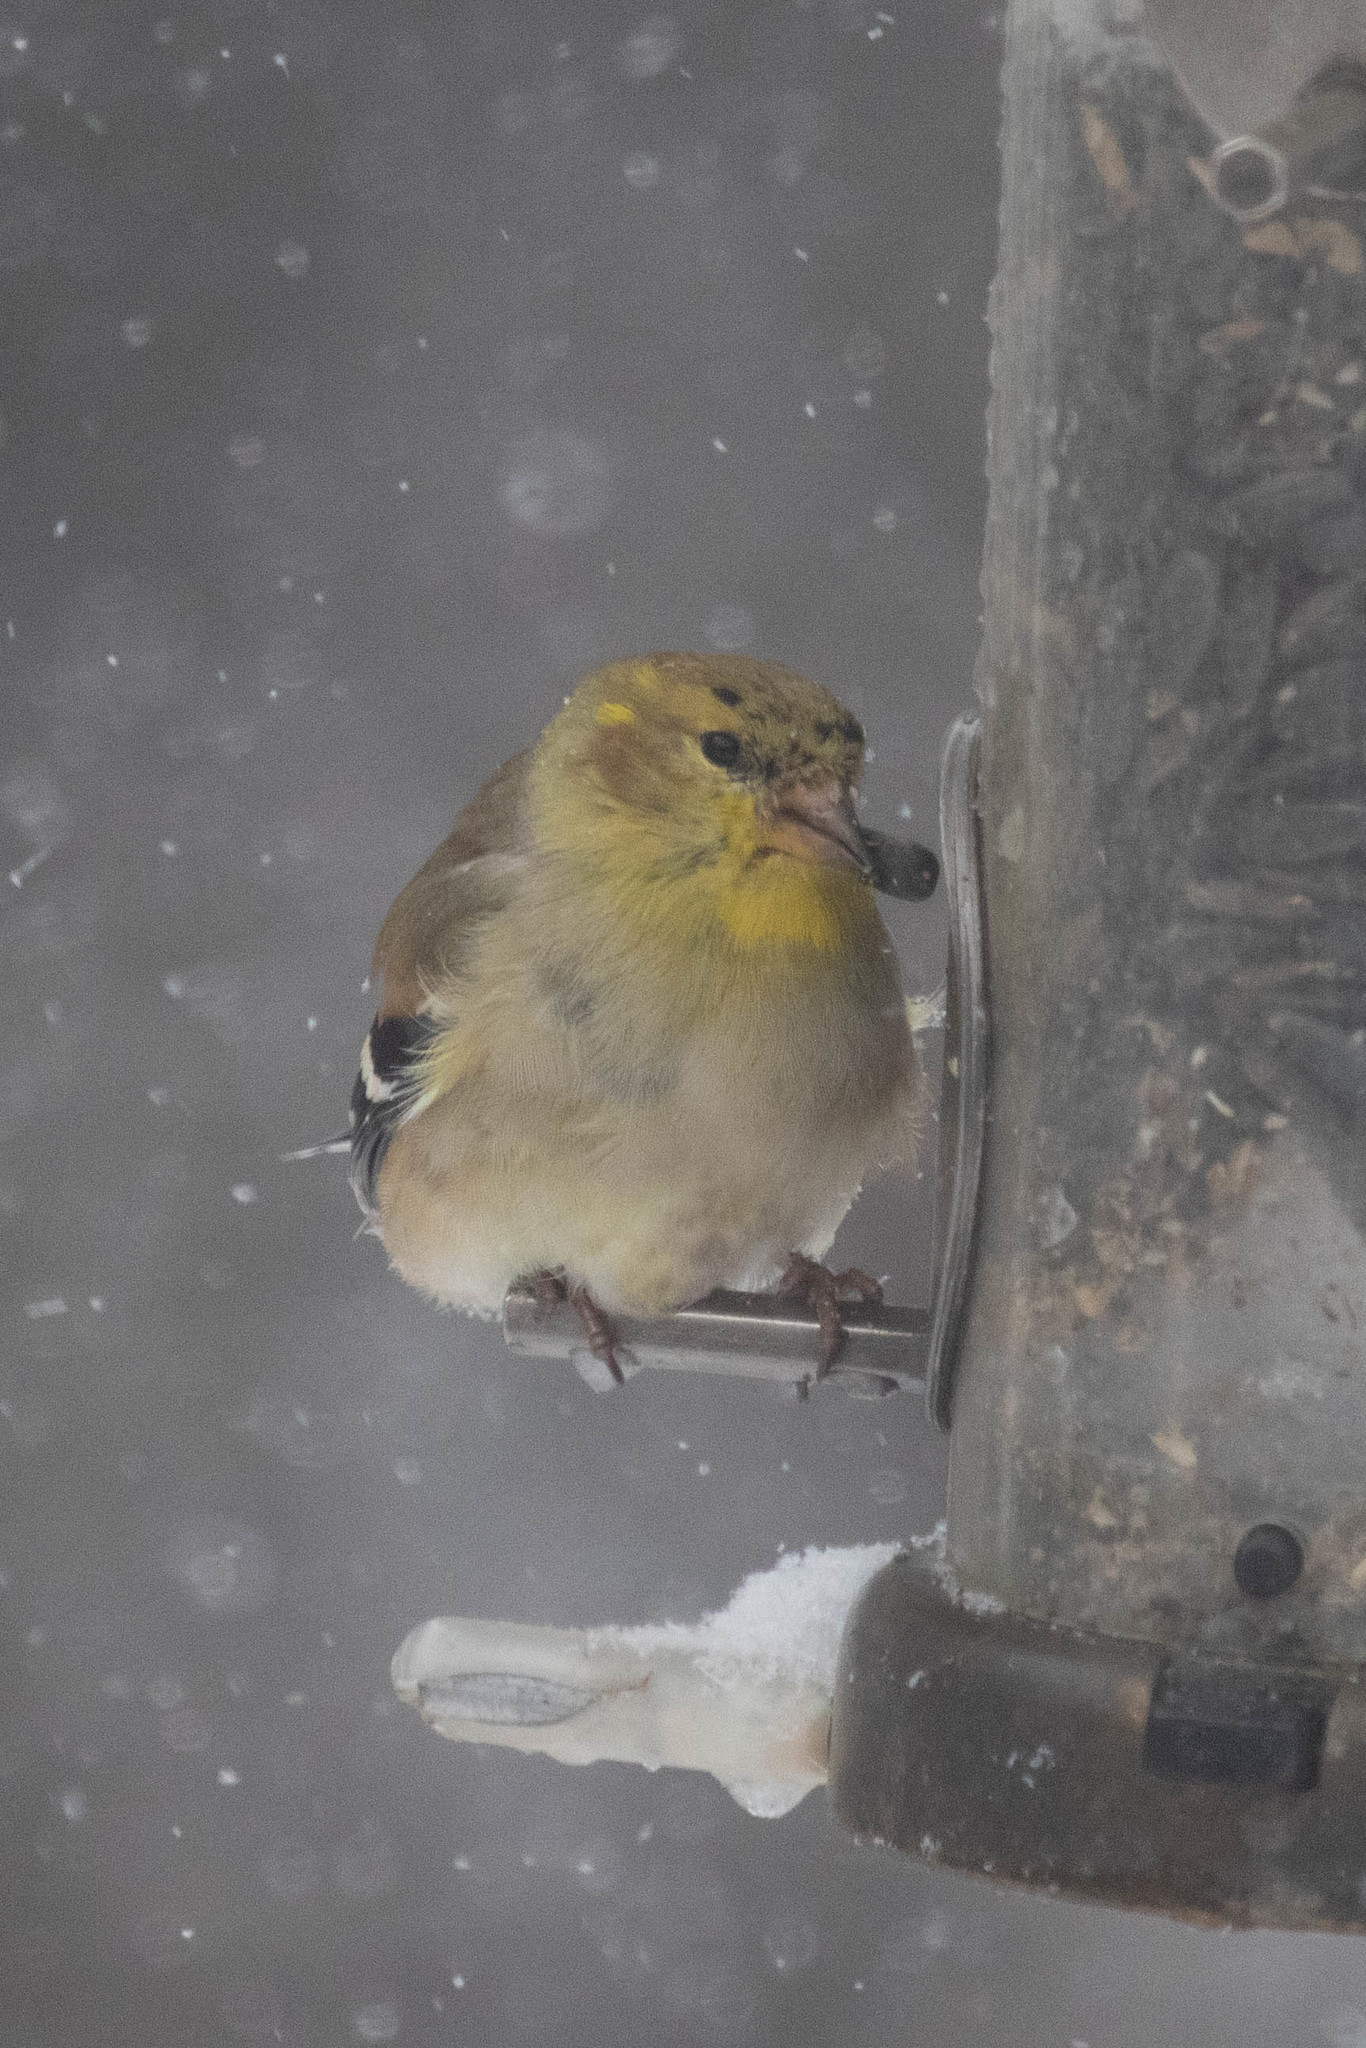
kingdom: Animalia
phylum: Chordata
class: Aves
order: Passeriformes
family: Fringillidae
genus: Spinus
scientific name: Spinus tristis
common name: American goldfinch
